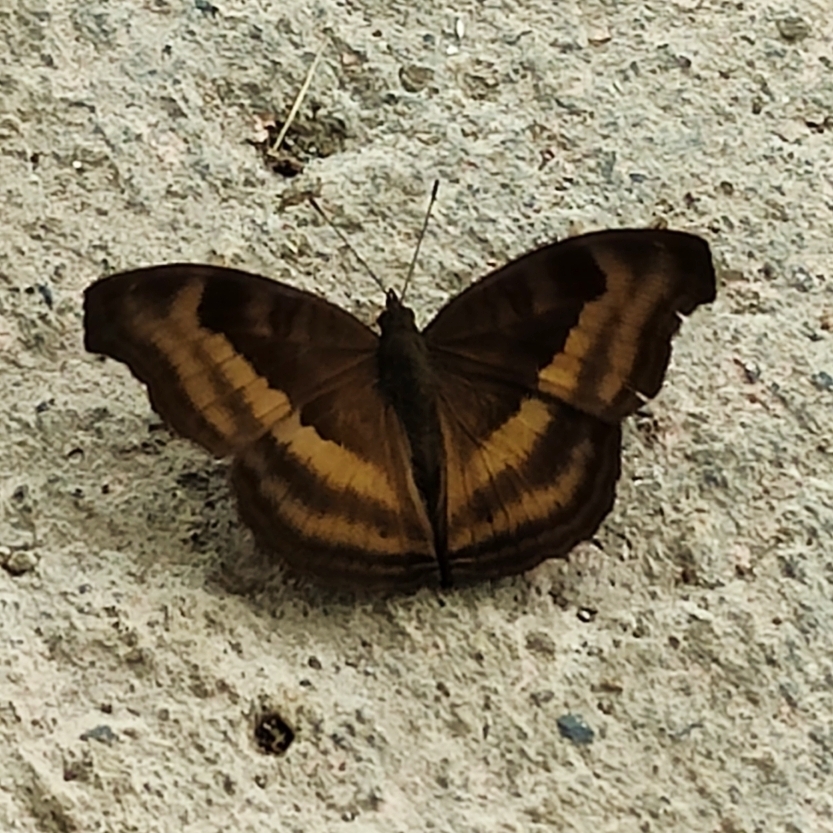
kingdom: Animalia
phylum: Arthropoda
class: Insecta
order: Lepidoptera
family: Nymphalidae
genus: Junonia
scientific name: Junonia iphita
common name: Chocolate pansy
